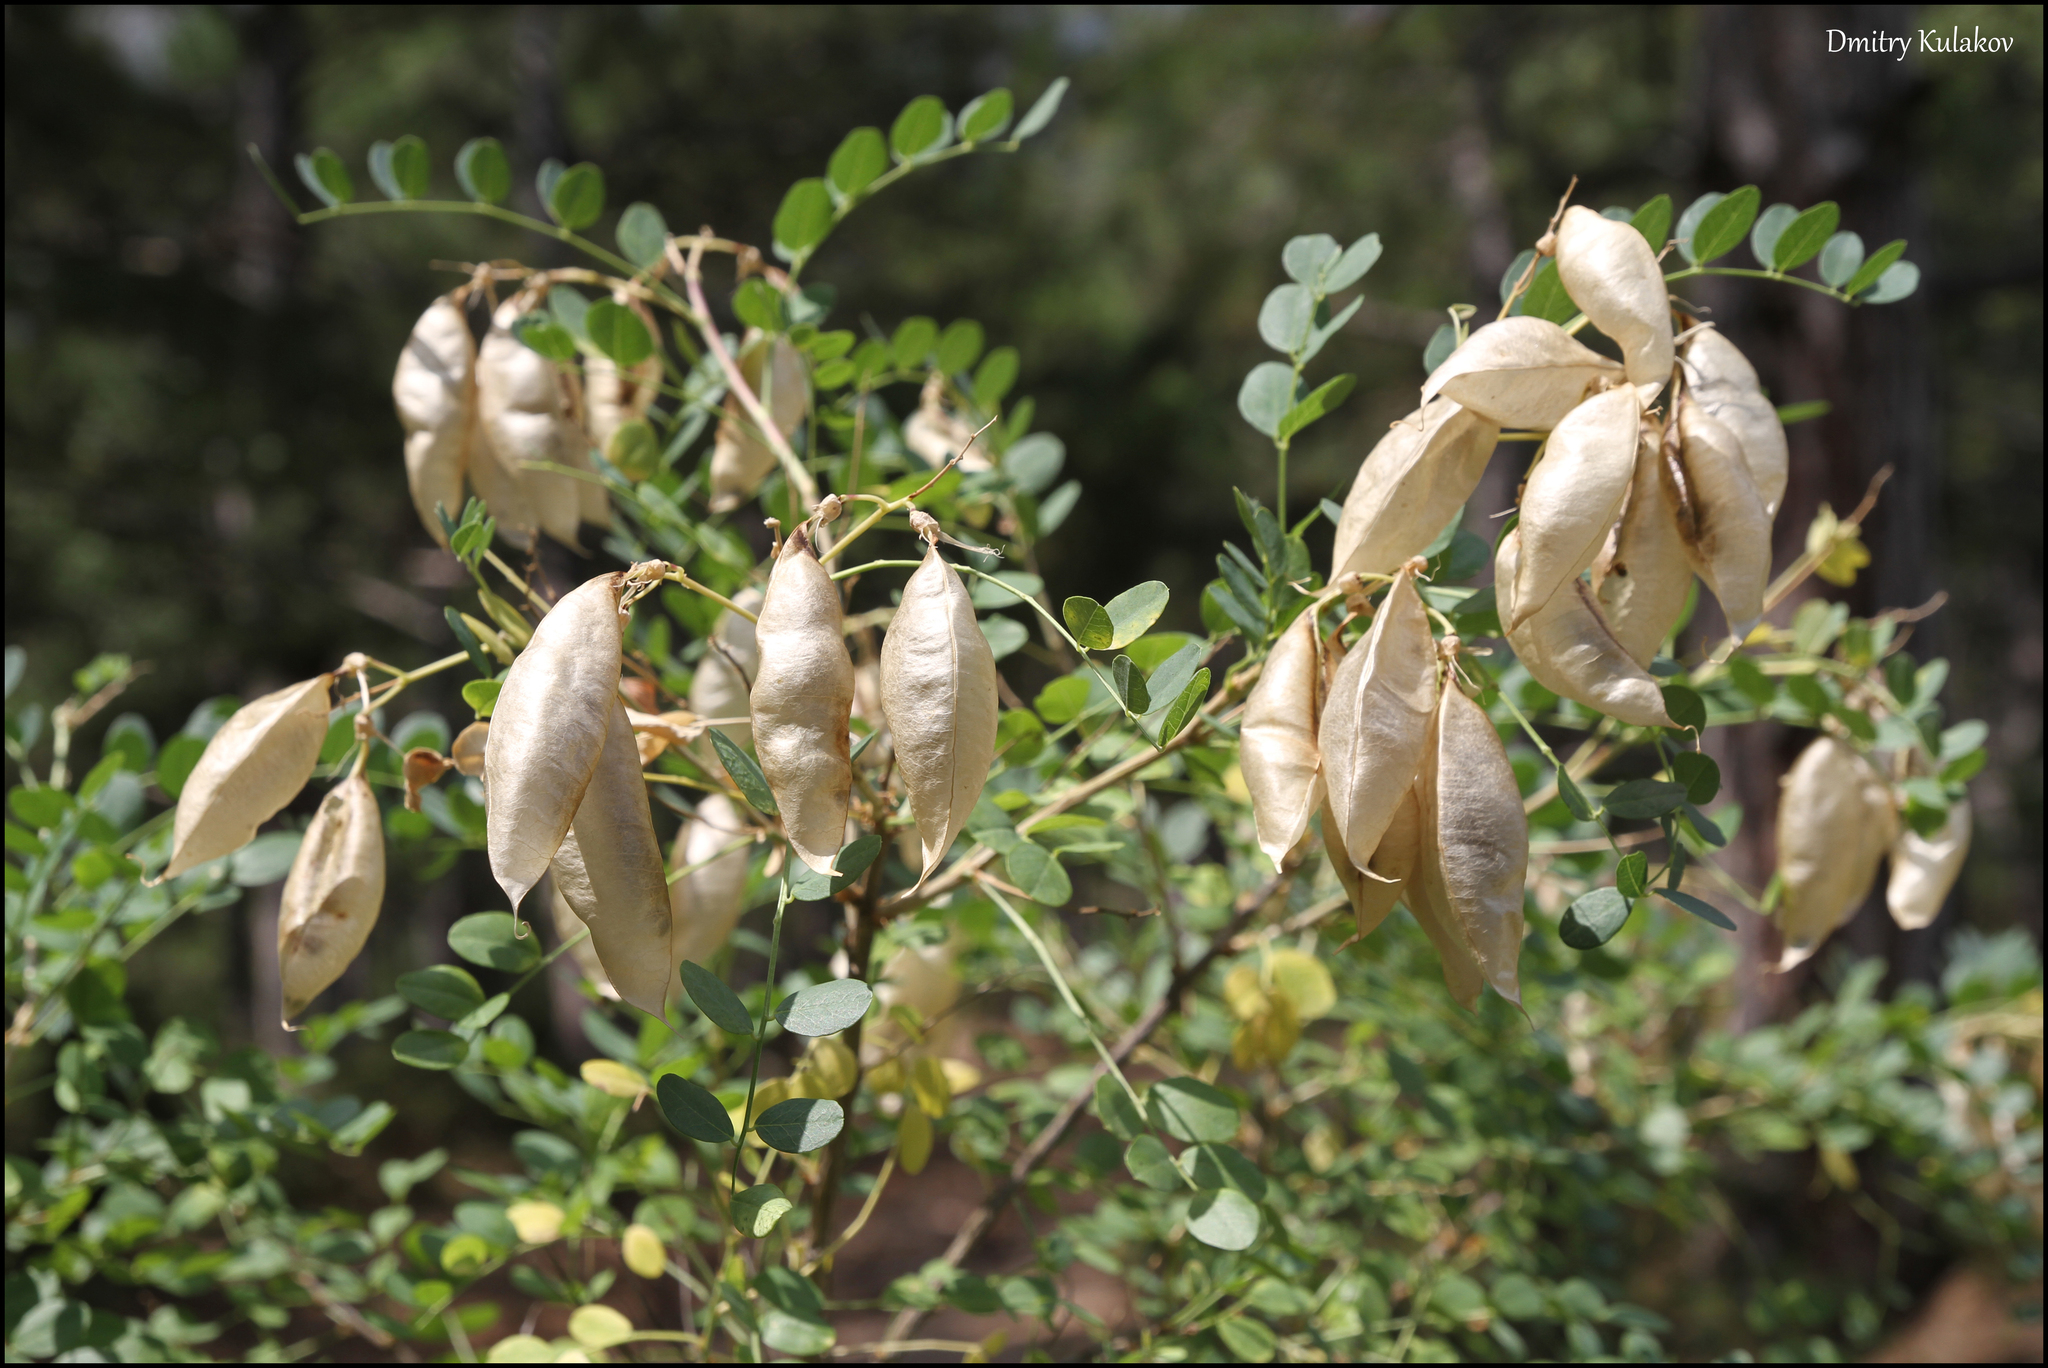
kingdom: Plantae
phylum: Tracheophyta
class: Magnoliopsida
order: Fabales
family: Fabaceae
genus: Colutea
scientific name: Colutea cilicica
